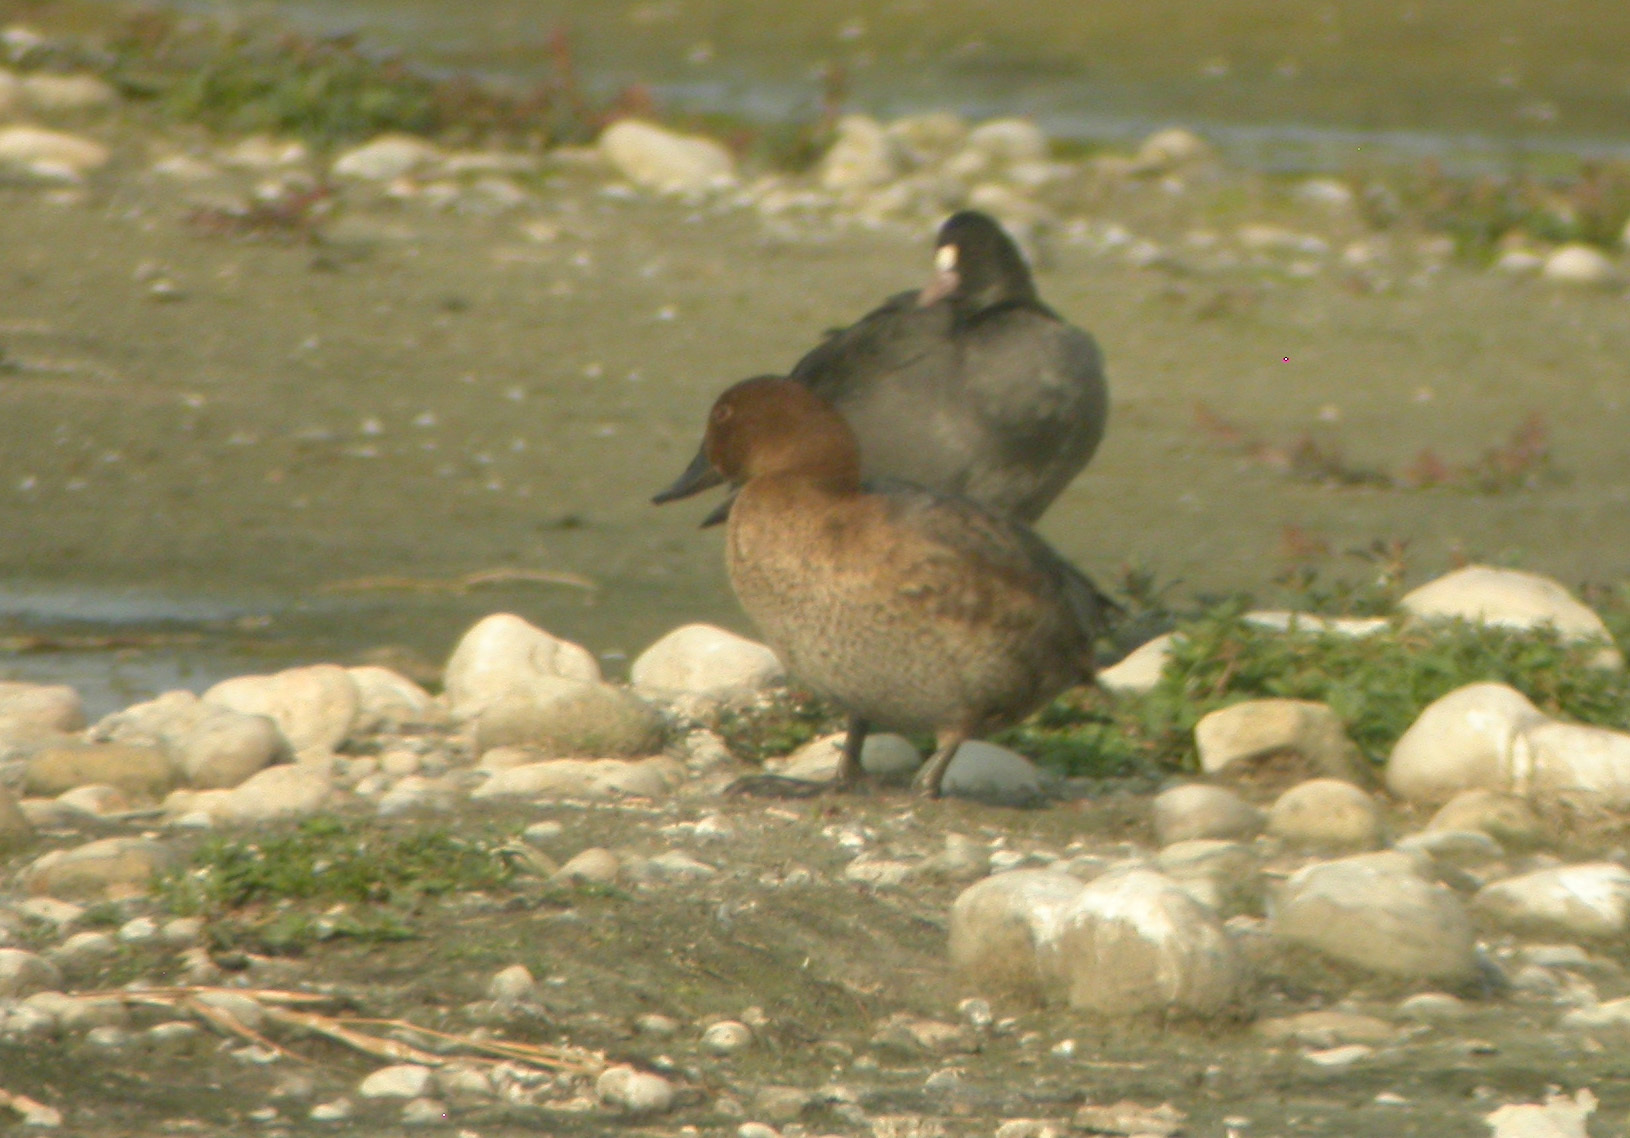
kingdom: Animalia
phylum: Chordata
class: Aves
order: Anseriformes
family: Anatidae
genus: Aythya
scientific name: Aythya ferina
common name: Common pochard
